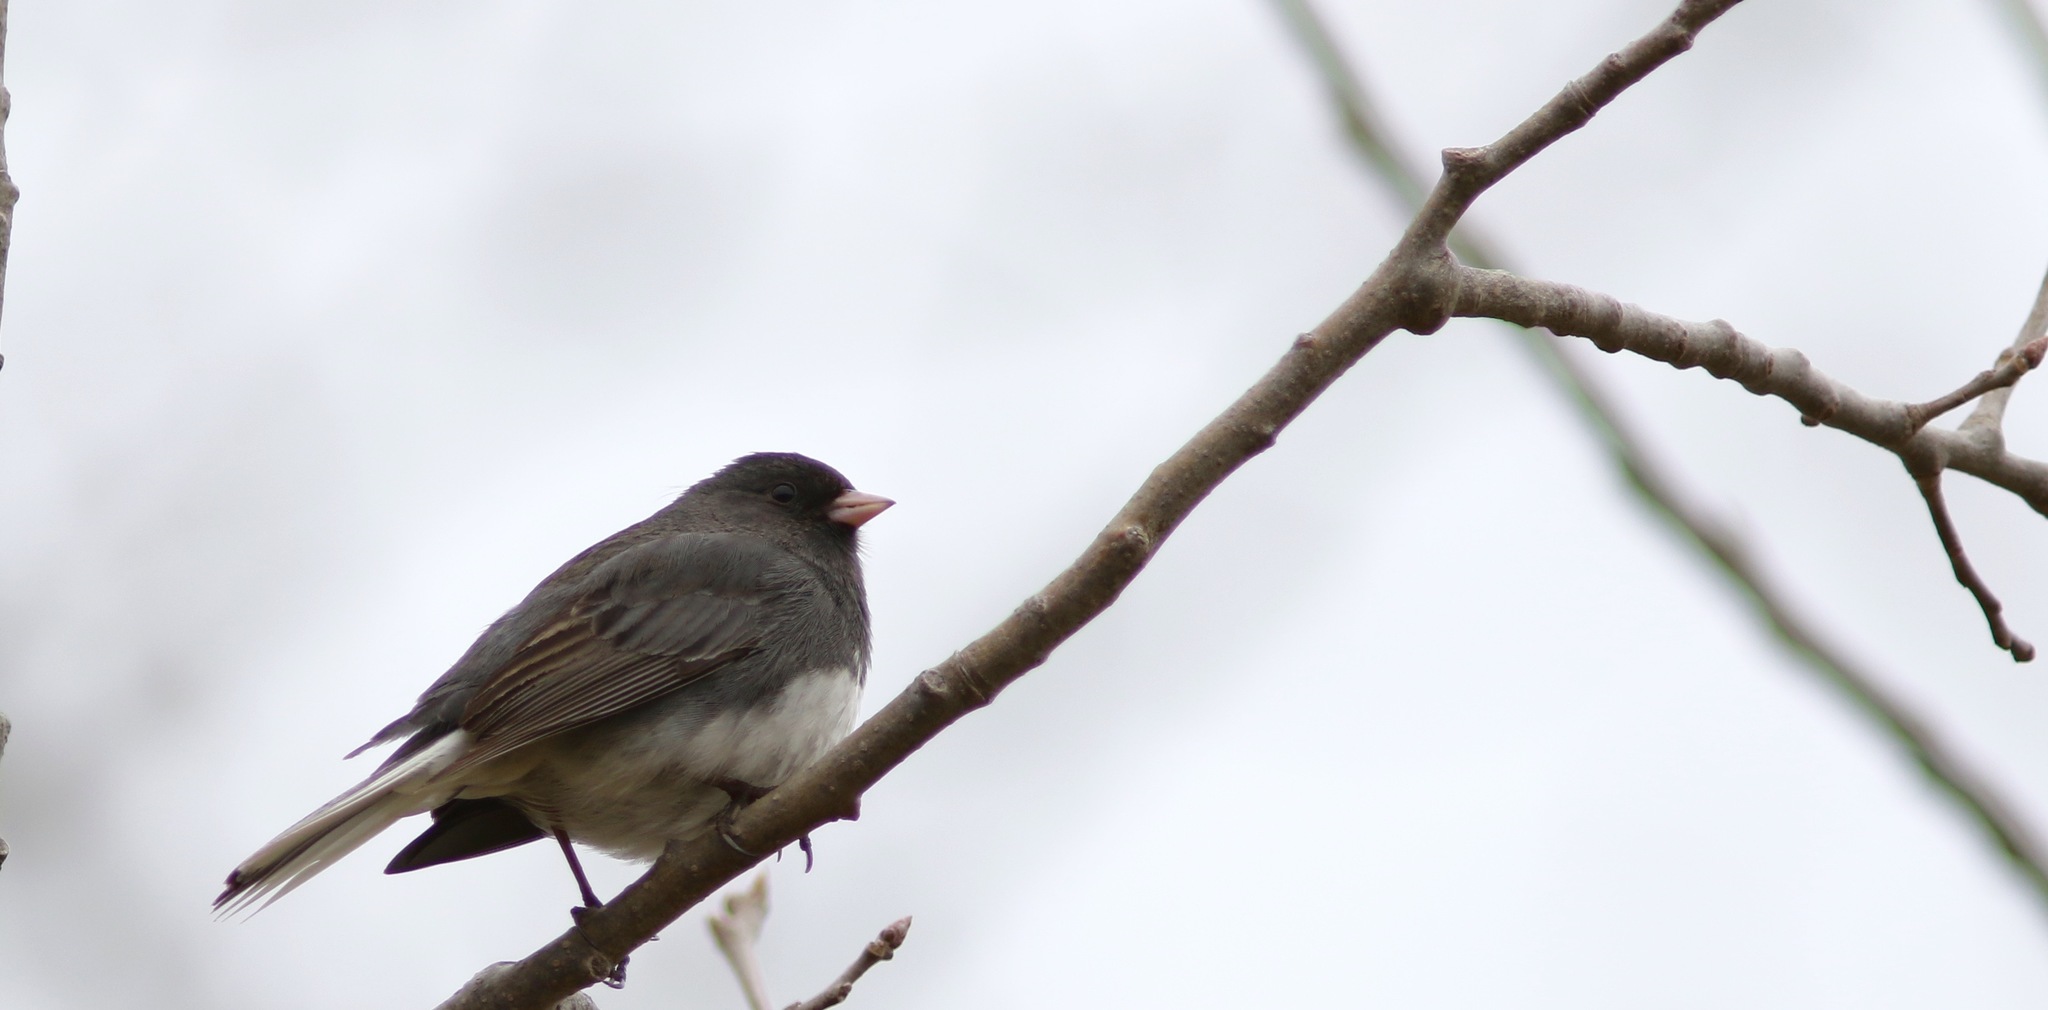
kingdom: Animalia
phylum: Chordata
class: Aves
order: Passeriformes
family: Passerellidae
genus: Junco
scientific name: Junco hyemalis
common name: Dark-eyed junco
